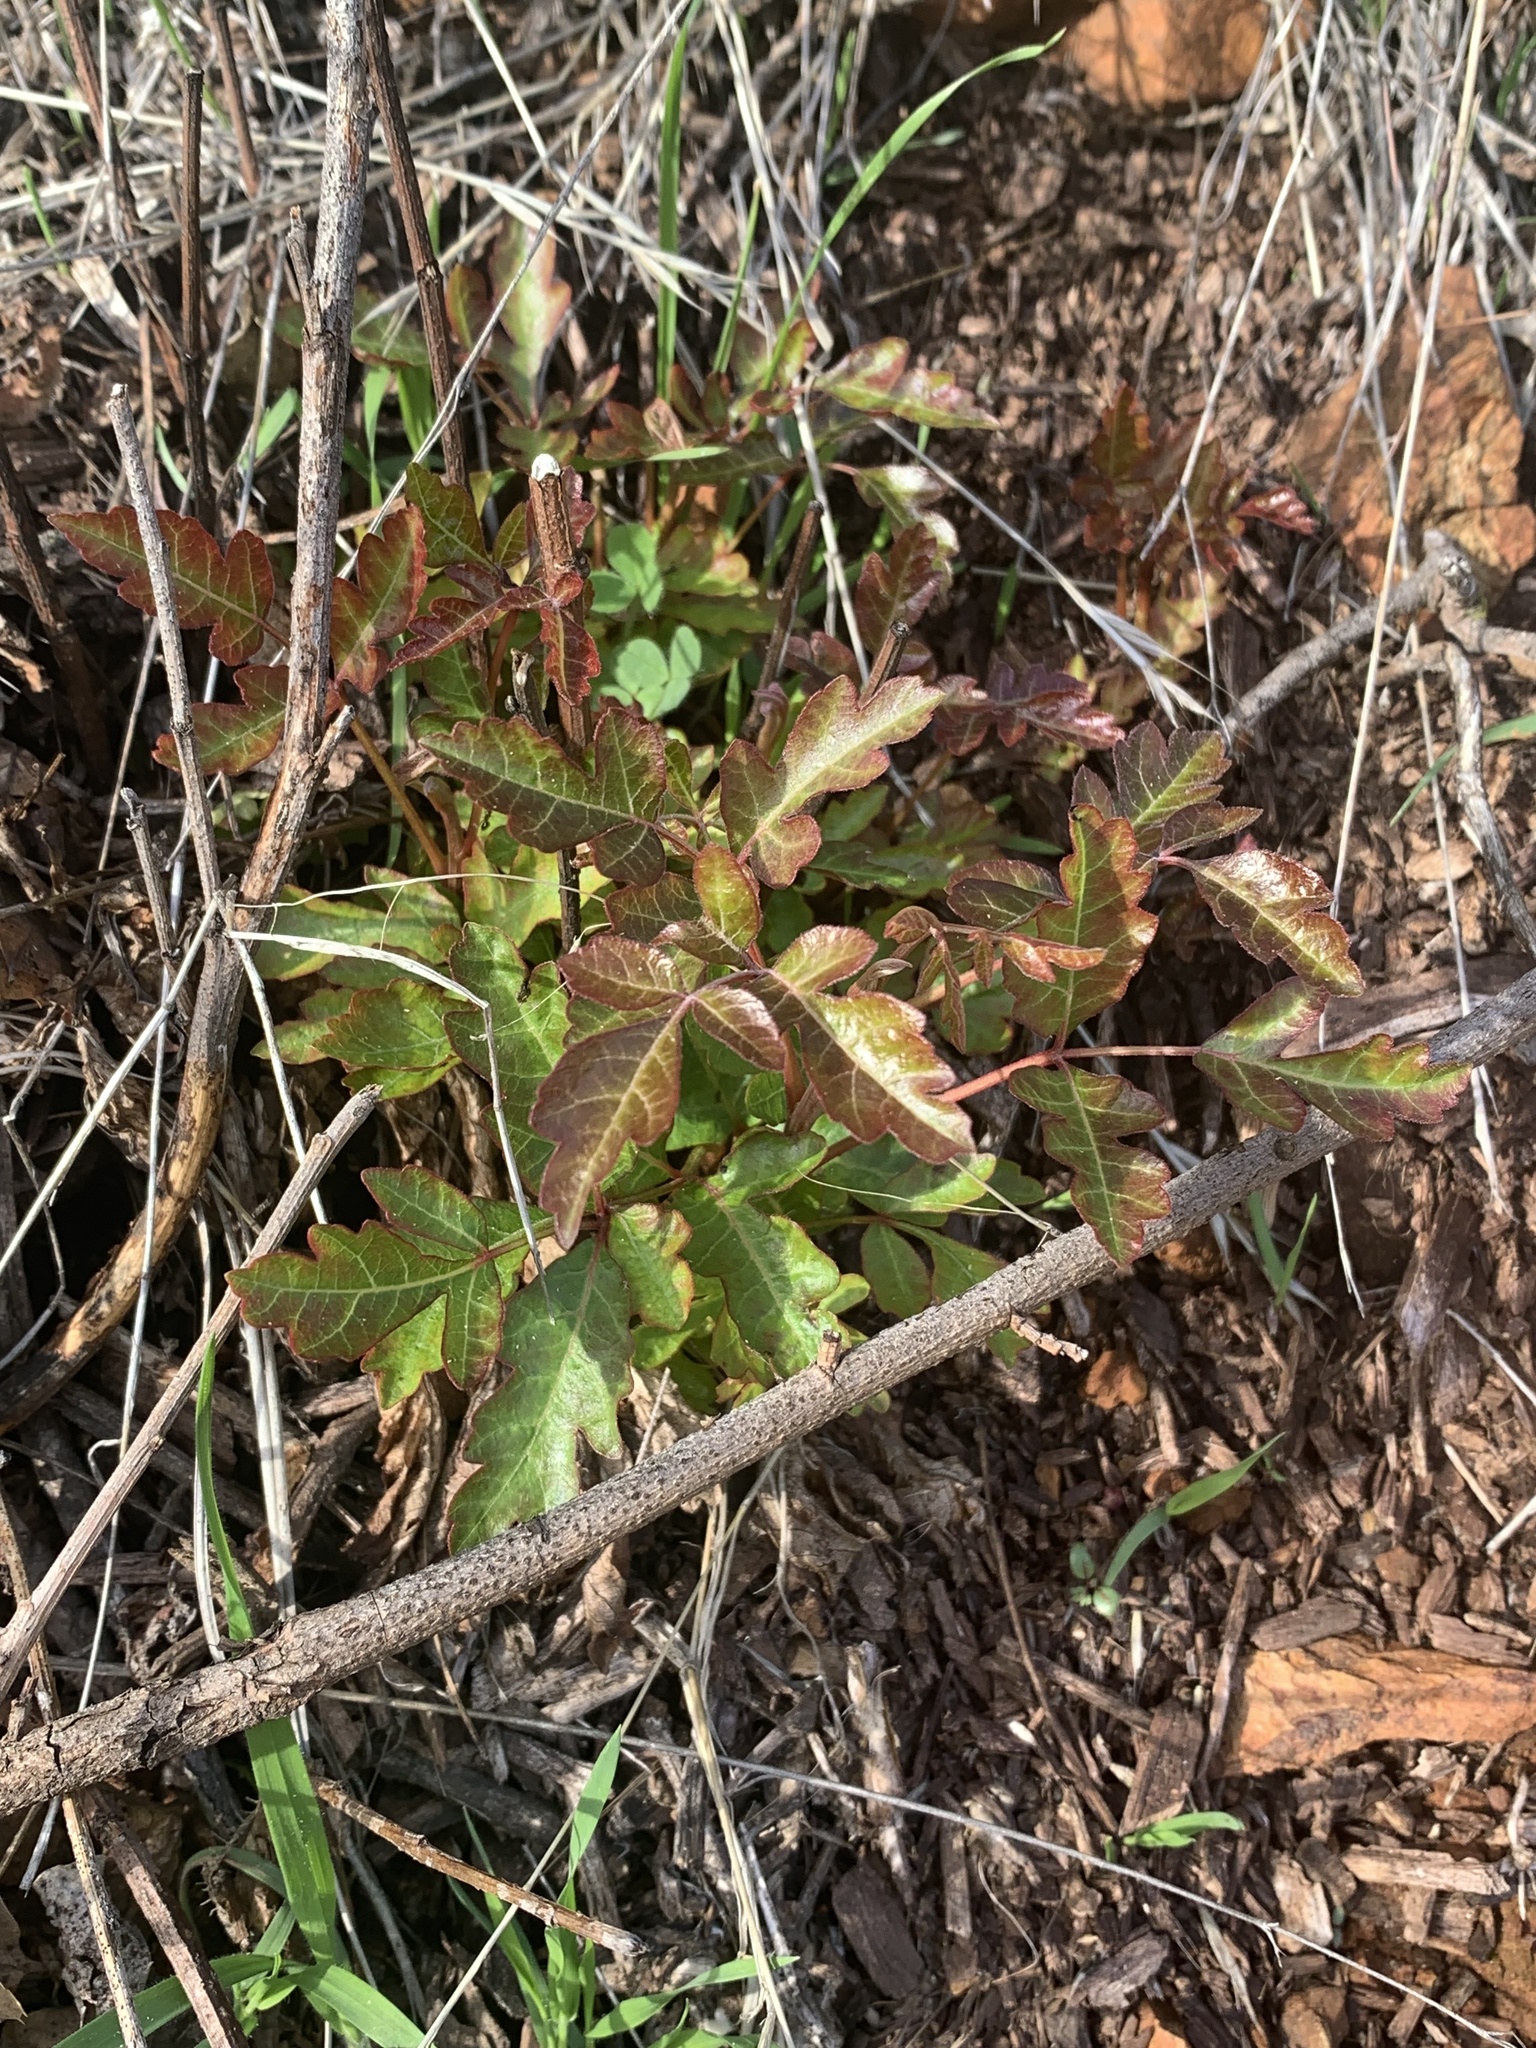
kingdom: Plantae
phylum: Tracheophyta
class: Magnoliopsida
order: Sapindales
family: Anacardiaceae
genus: Toxicodendron
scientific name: Toxicodendron diversilobum
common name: Pacific poison-oak
